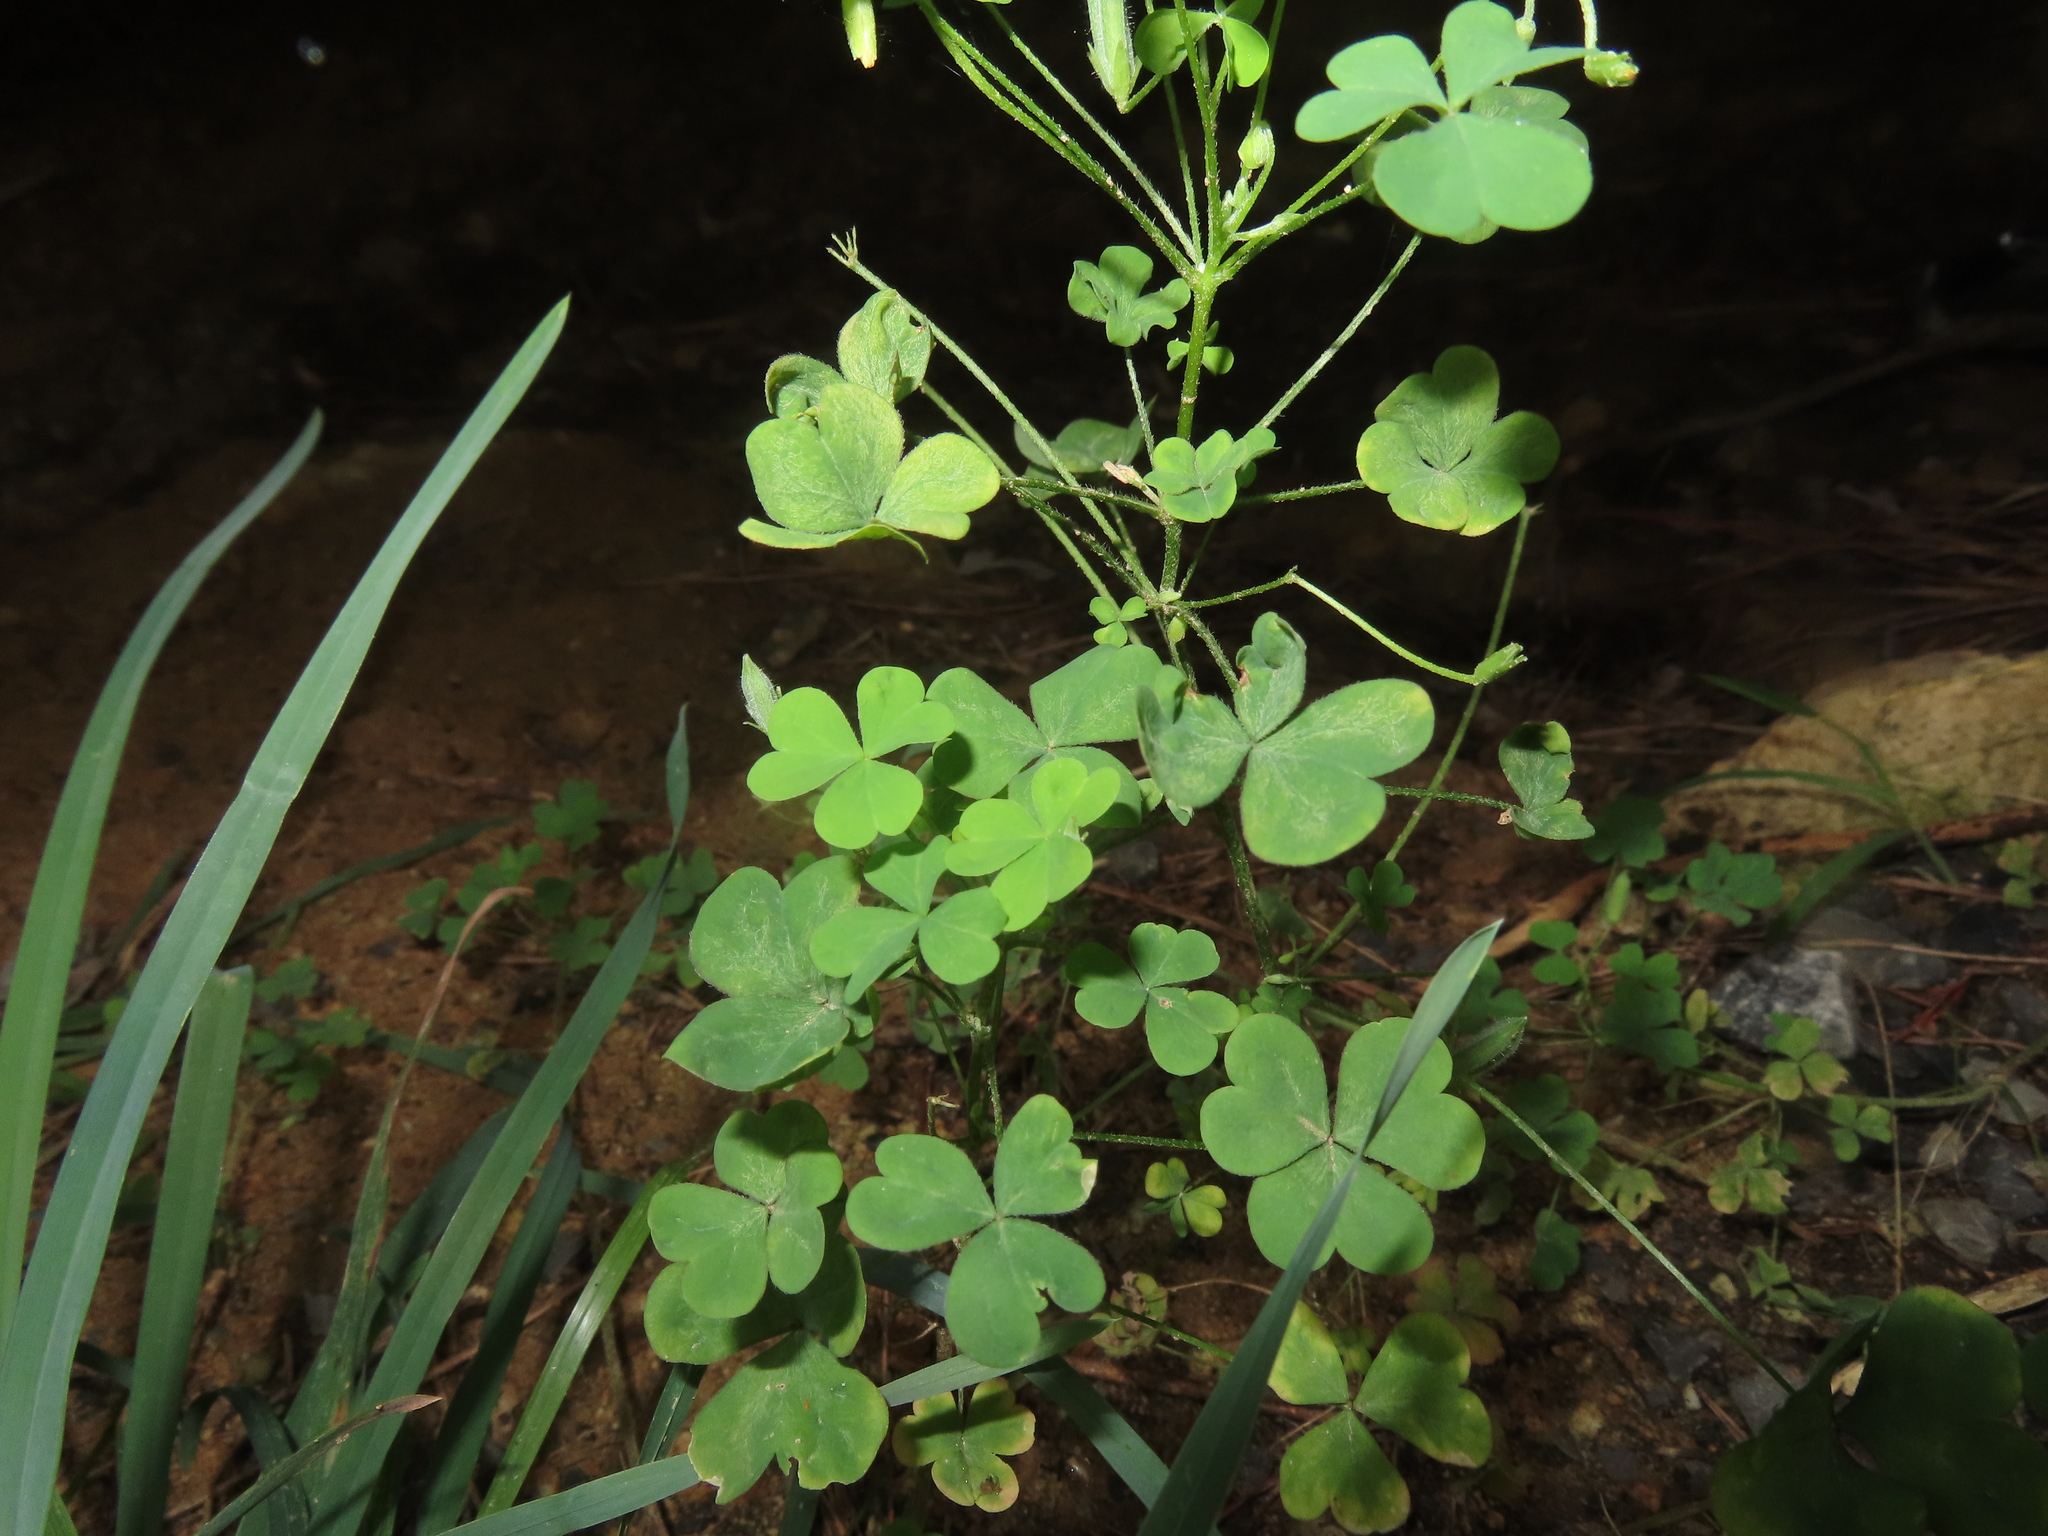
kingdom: Plantae
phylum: Tracheophyta
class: Magnoliopsida
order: Oxalidales
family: Oxalidaceae
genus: Oxalis
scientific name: Oxalis stricta
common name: Upright yellow-sorrel
